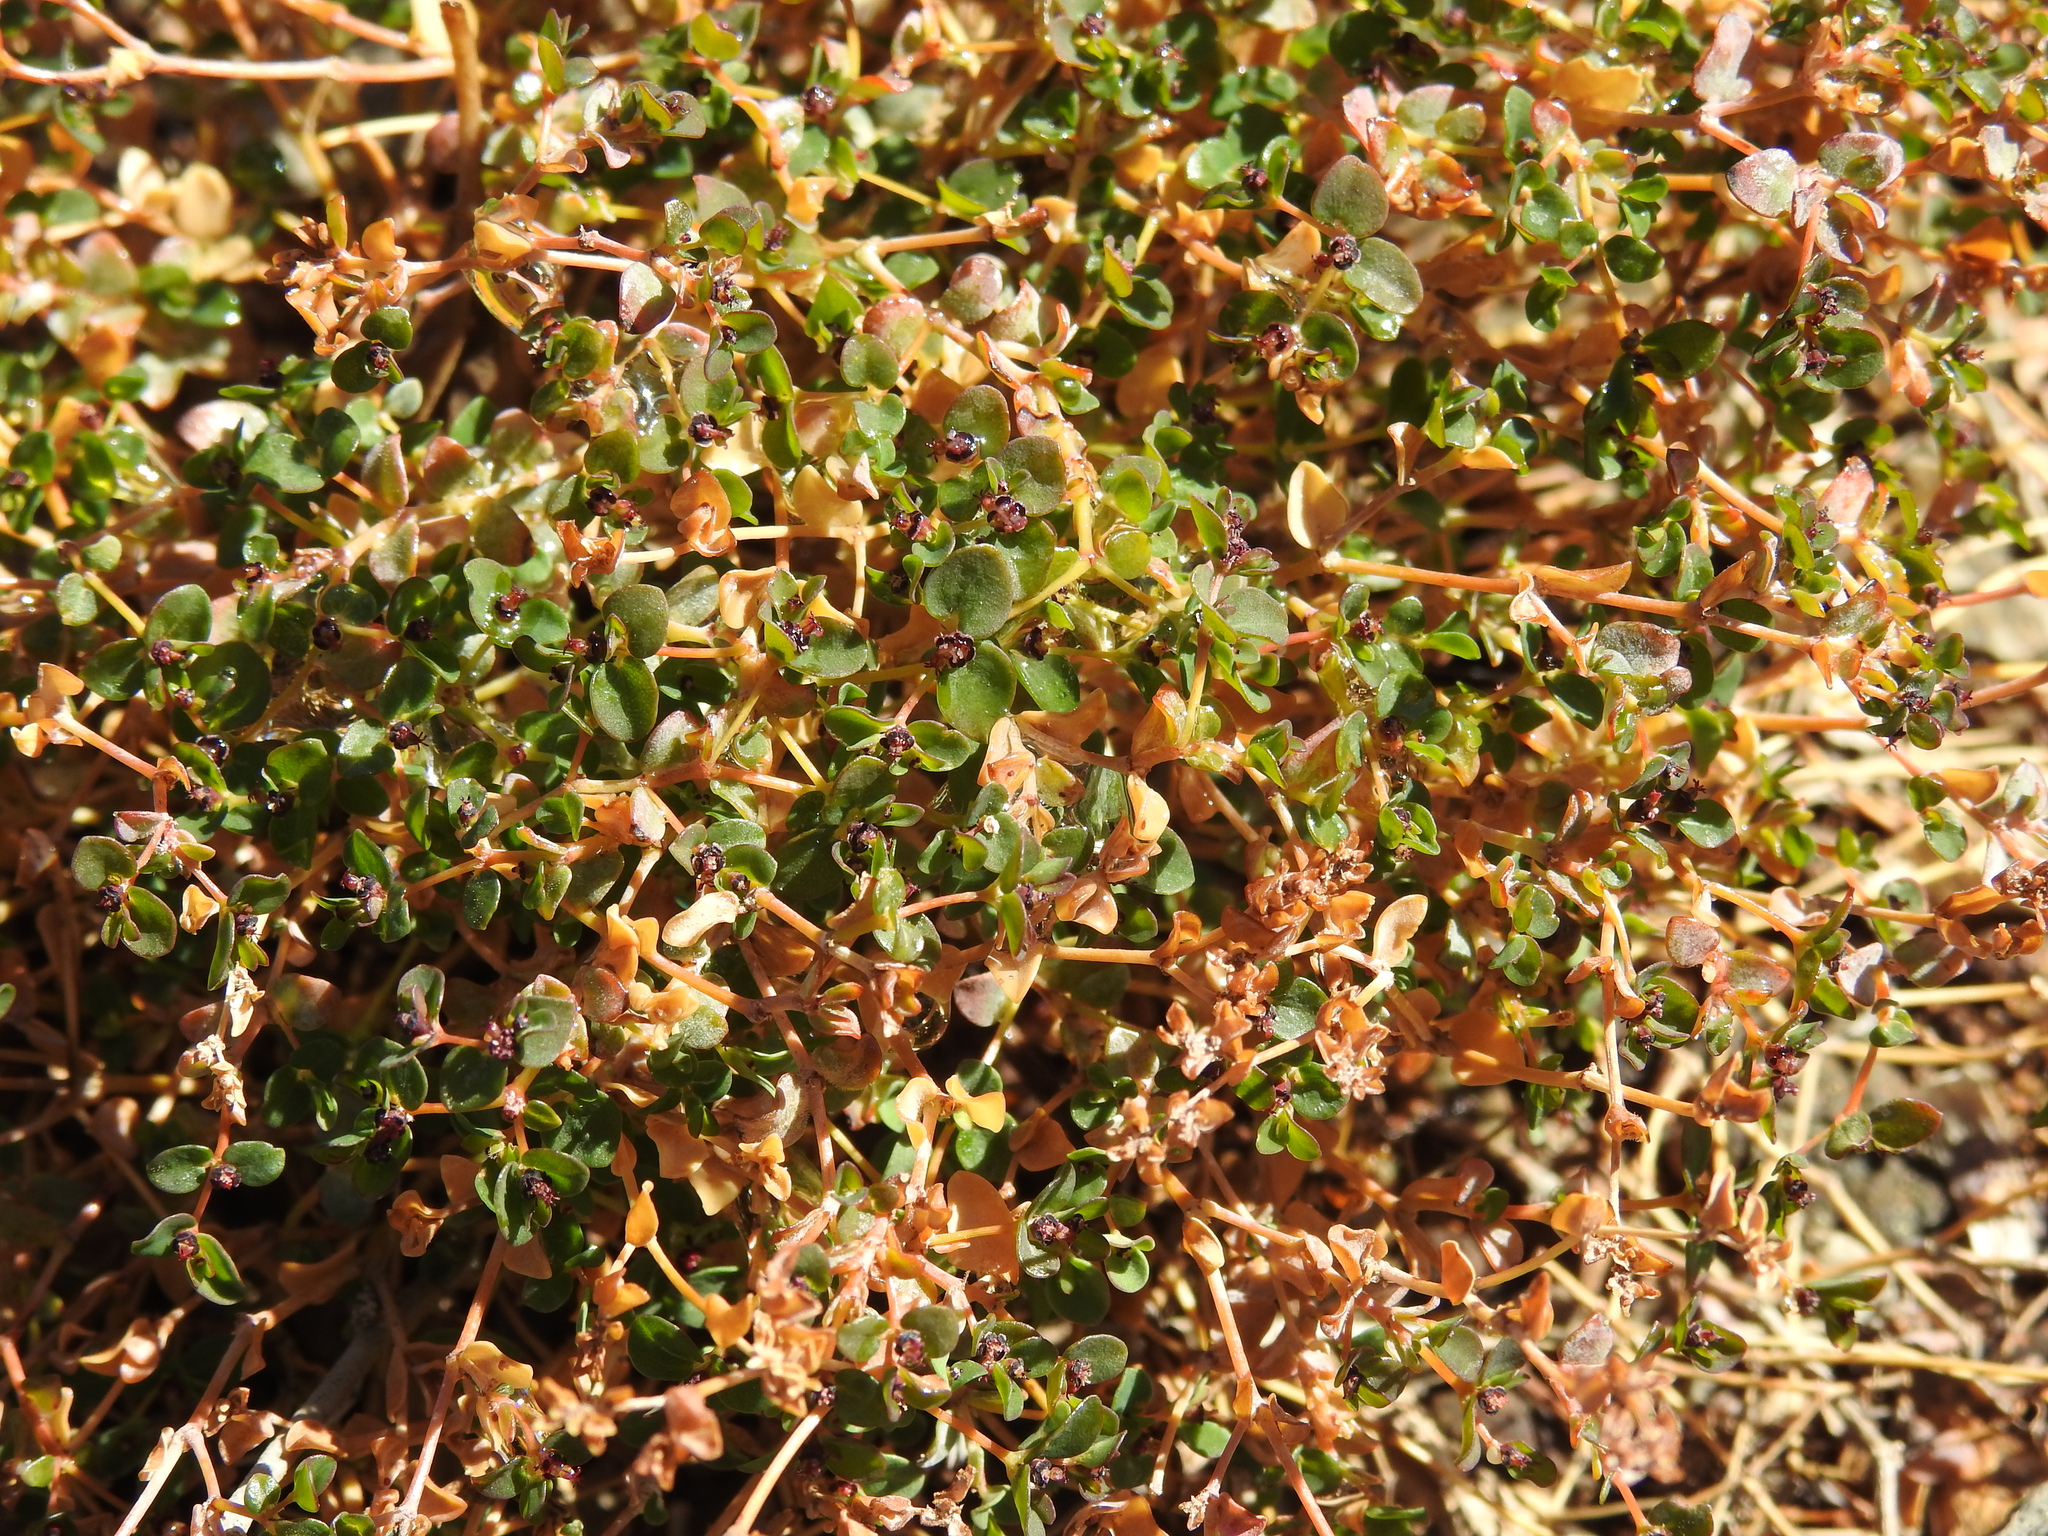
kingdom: Plantae
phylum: Tracheophyta
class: Magnoliopsida
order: Malpighiales
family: Euphorbiaceae
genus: Euphorbia
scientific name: Euphorbia polycarpa
